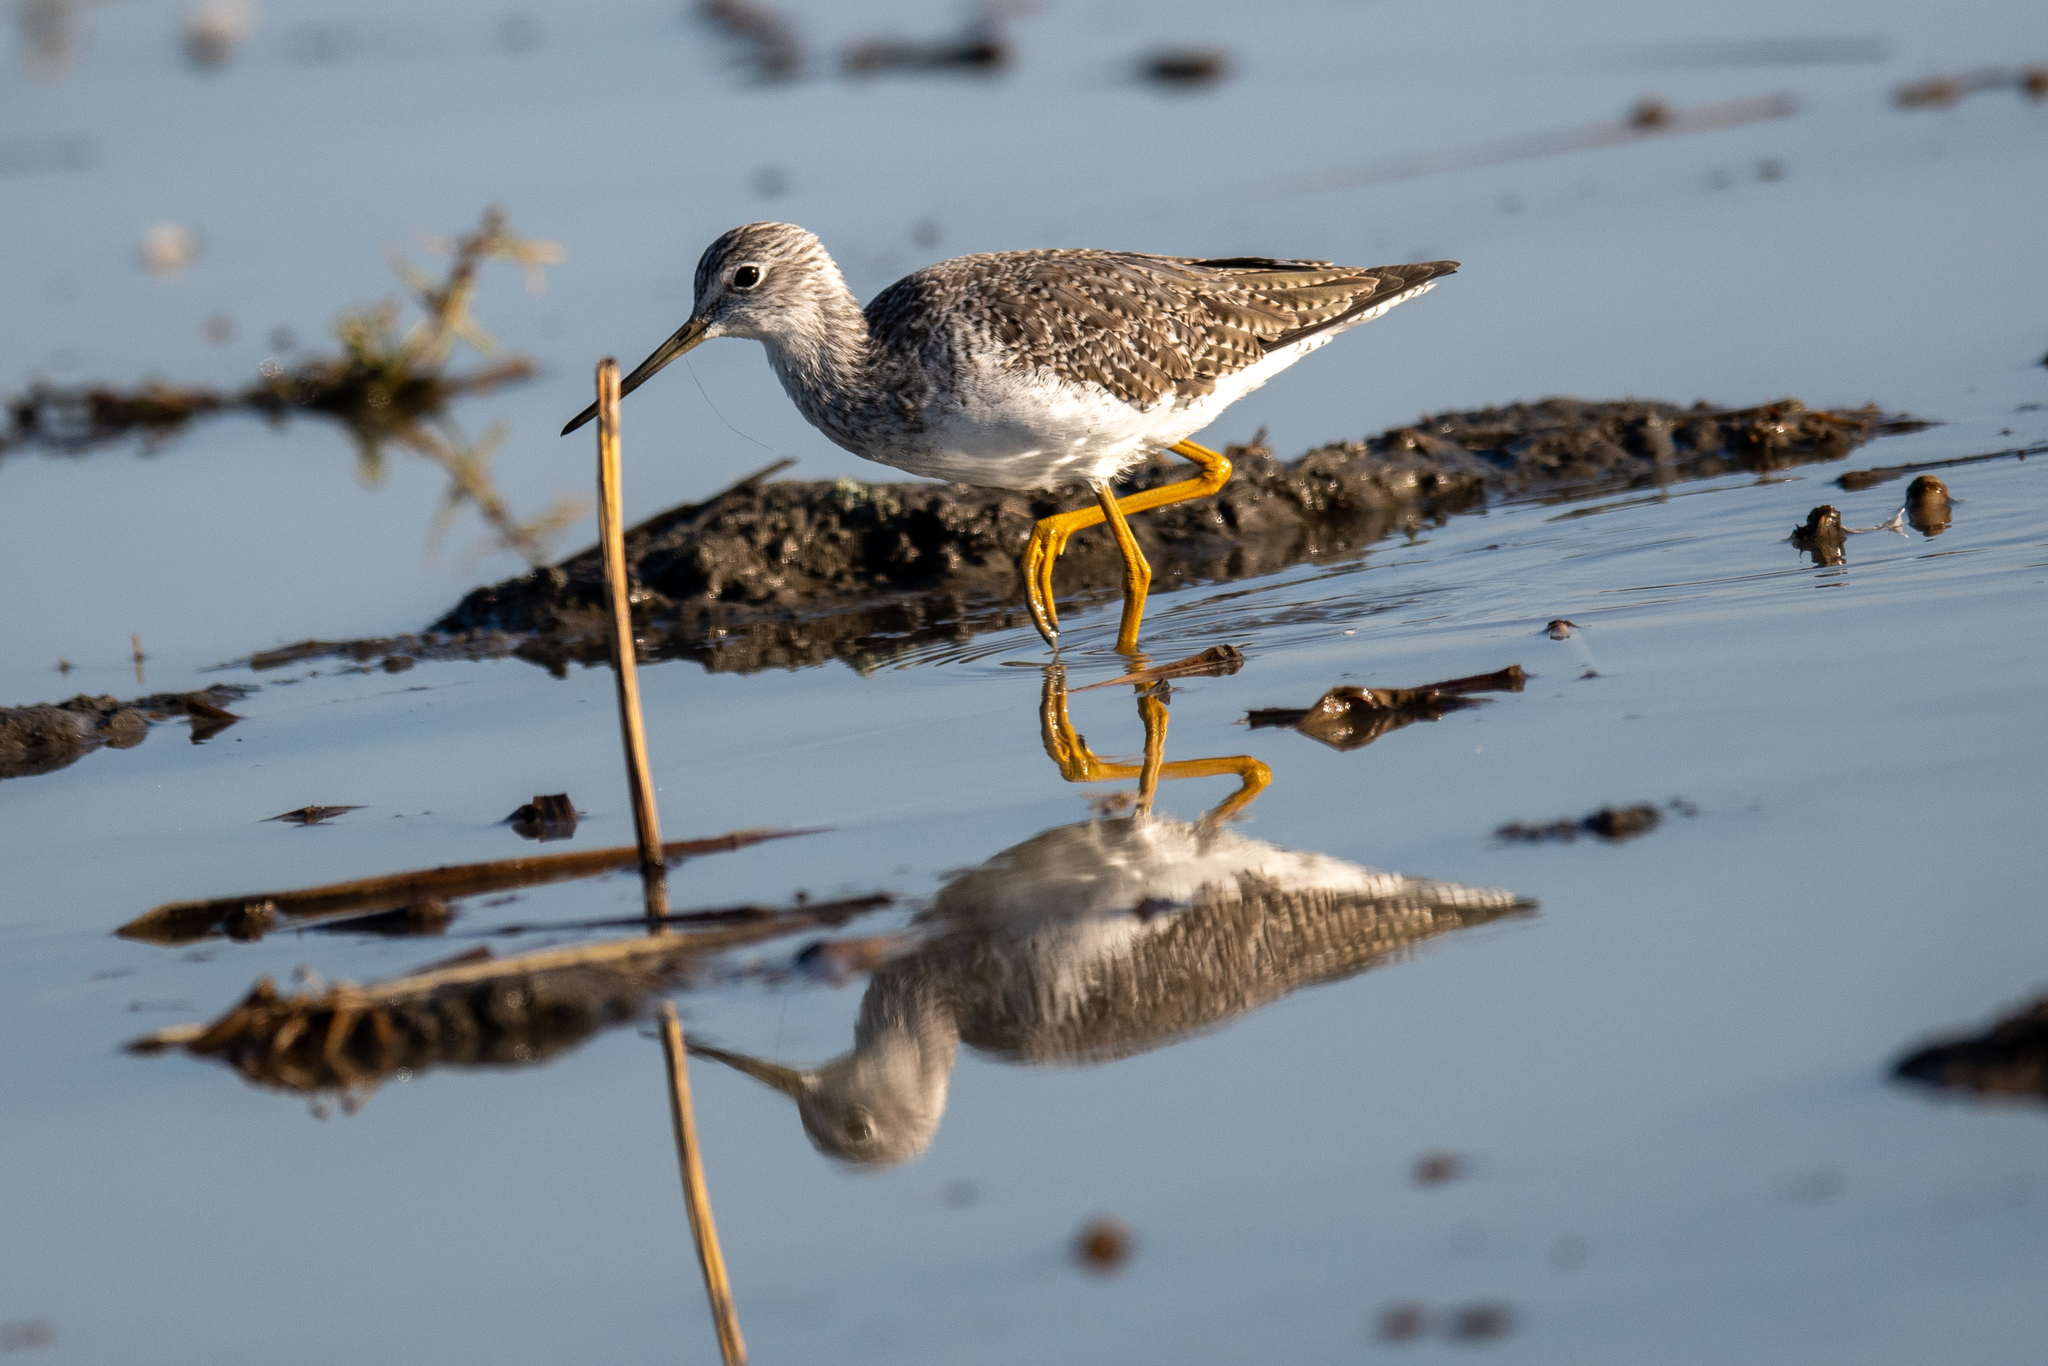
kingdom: Animalia
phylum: Chordata
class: Aves
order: Charadriiformes
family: Scolopacidae
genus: Tringa
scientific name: Tringa melanoleuca
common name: Greater yellowlegs
